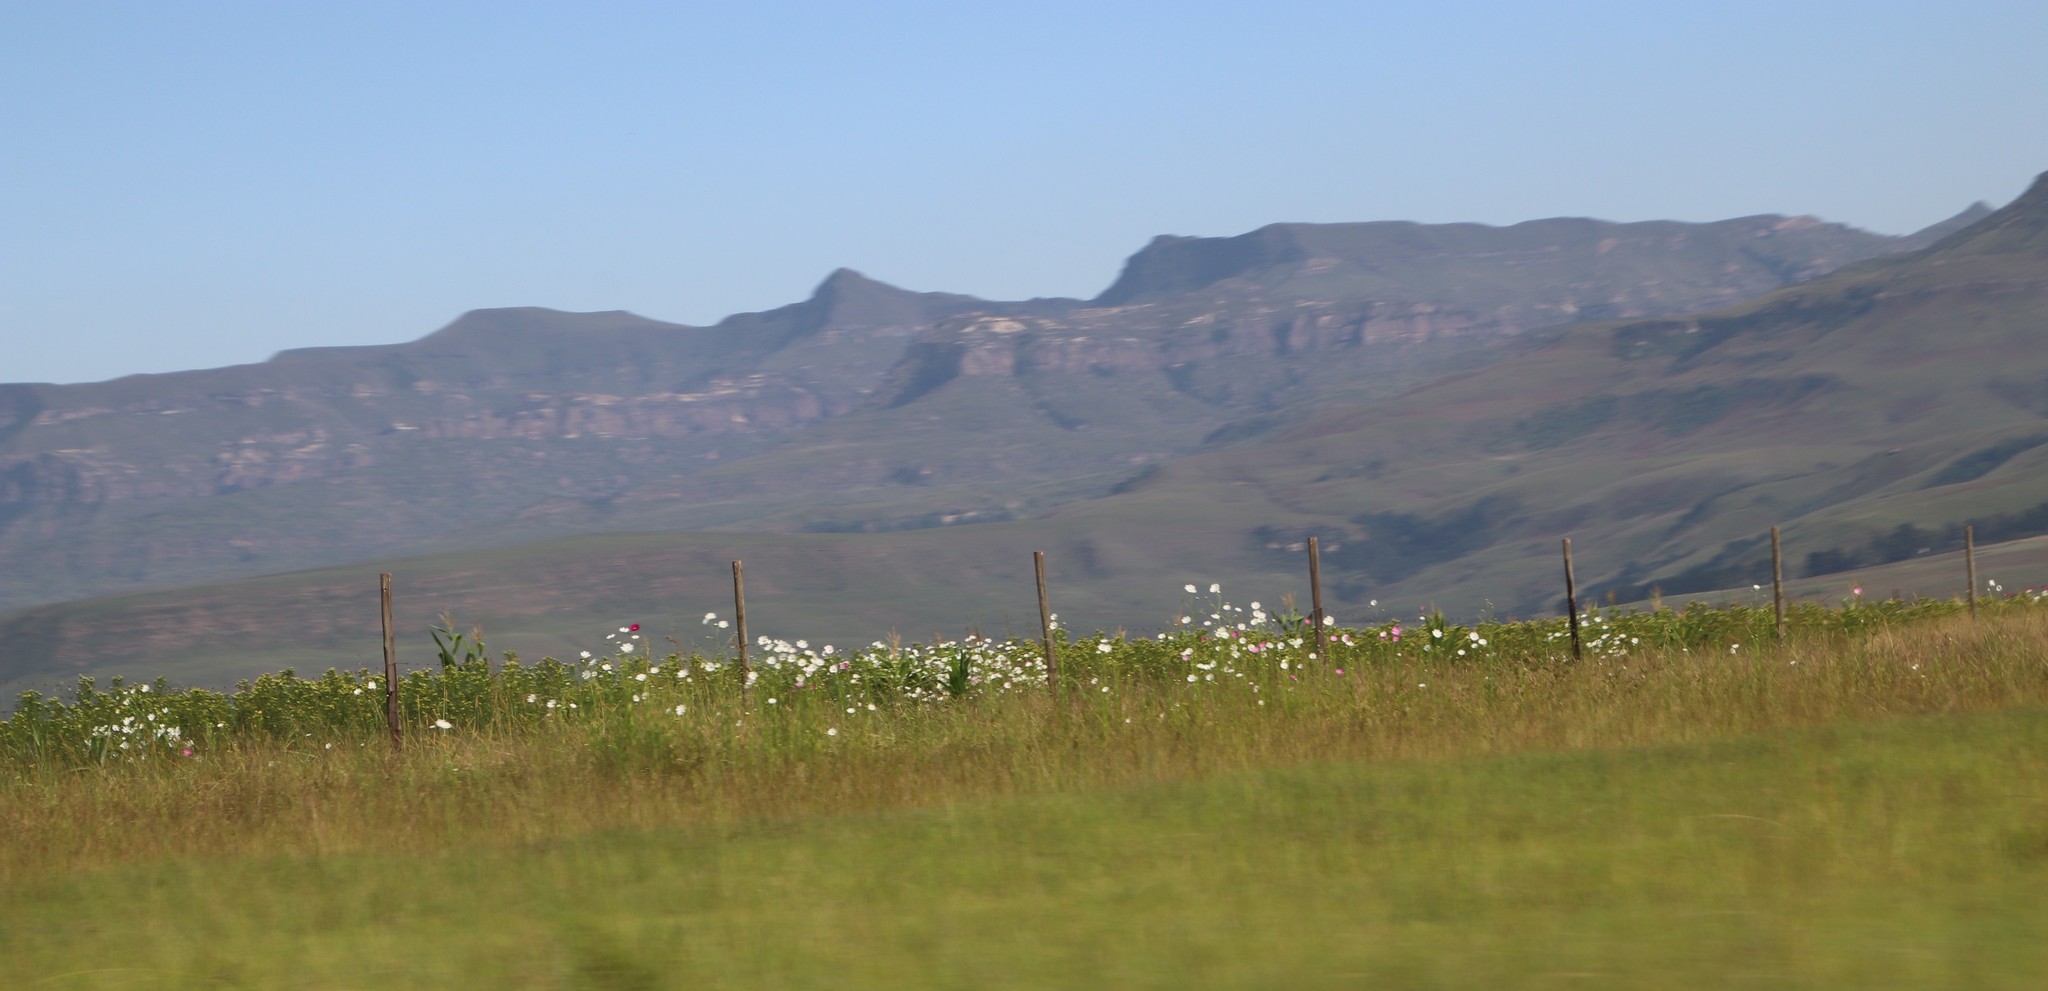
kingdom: Plantae
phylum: Tracheophyta
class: Magnoliopsida
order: Asterales
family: Asteraceae
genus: Cosmos
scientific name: Cosmos bipinnatus
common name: Garden cosmos
